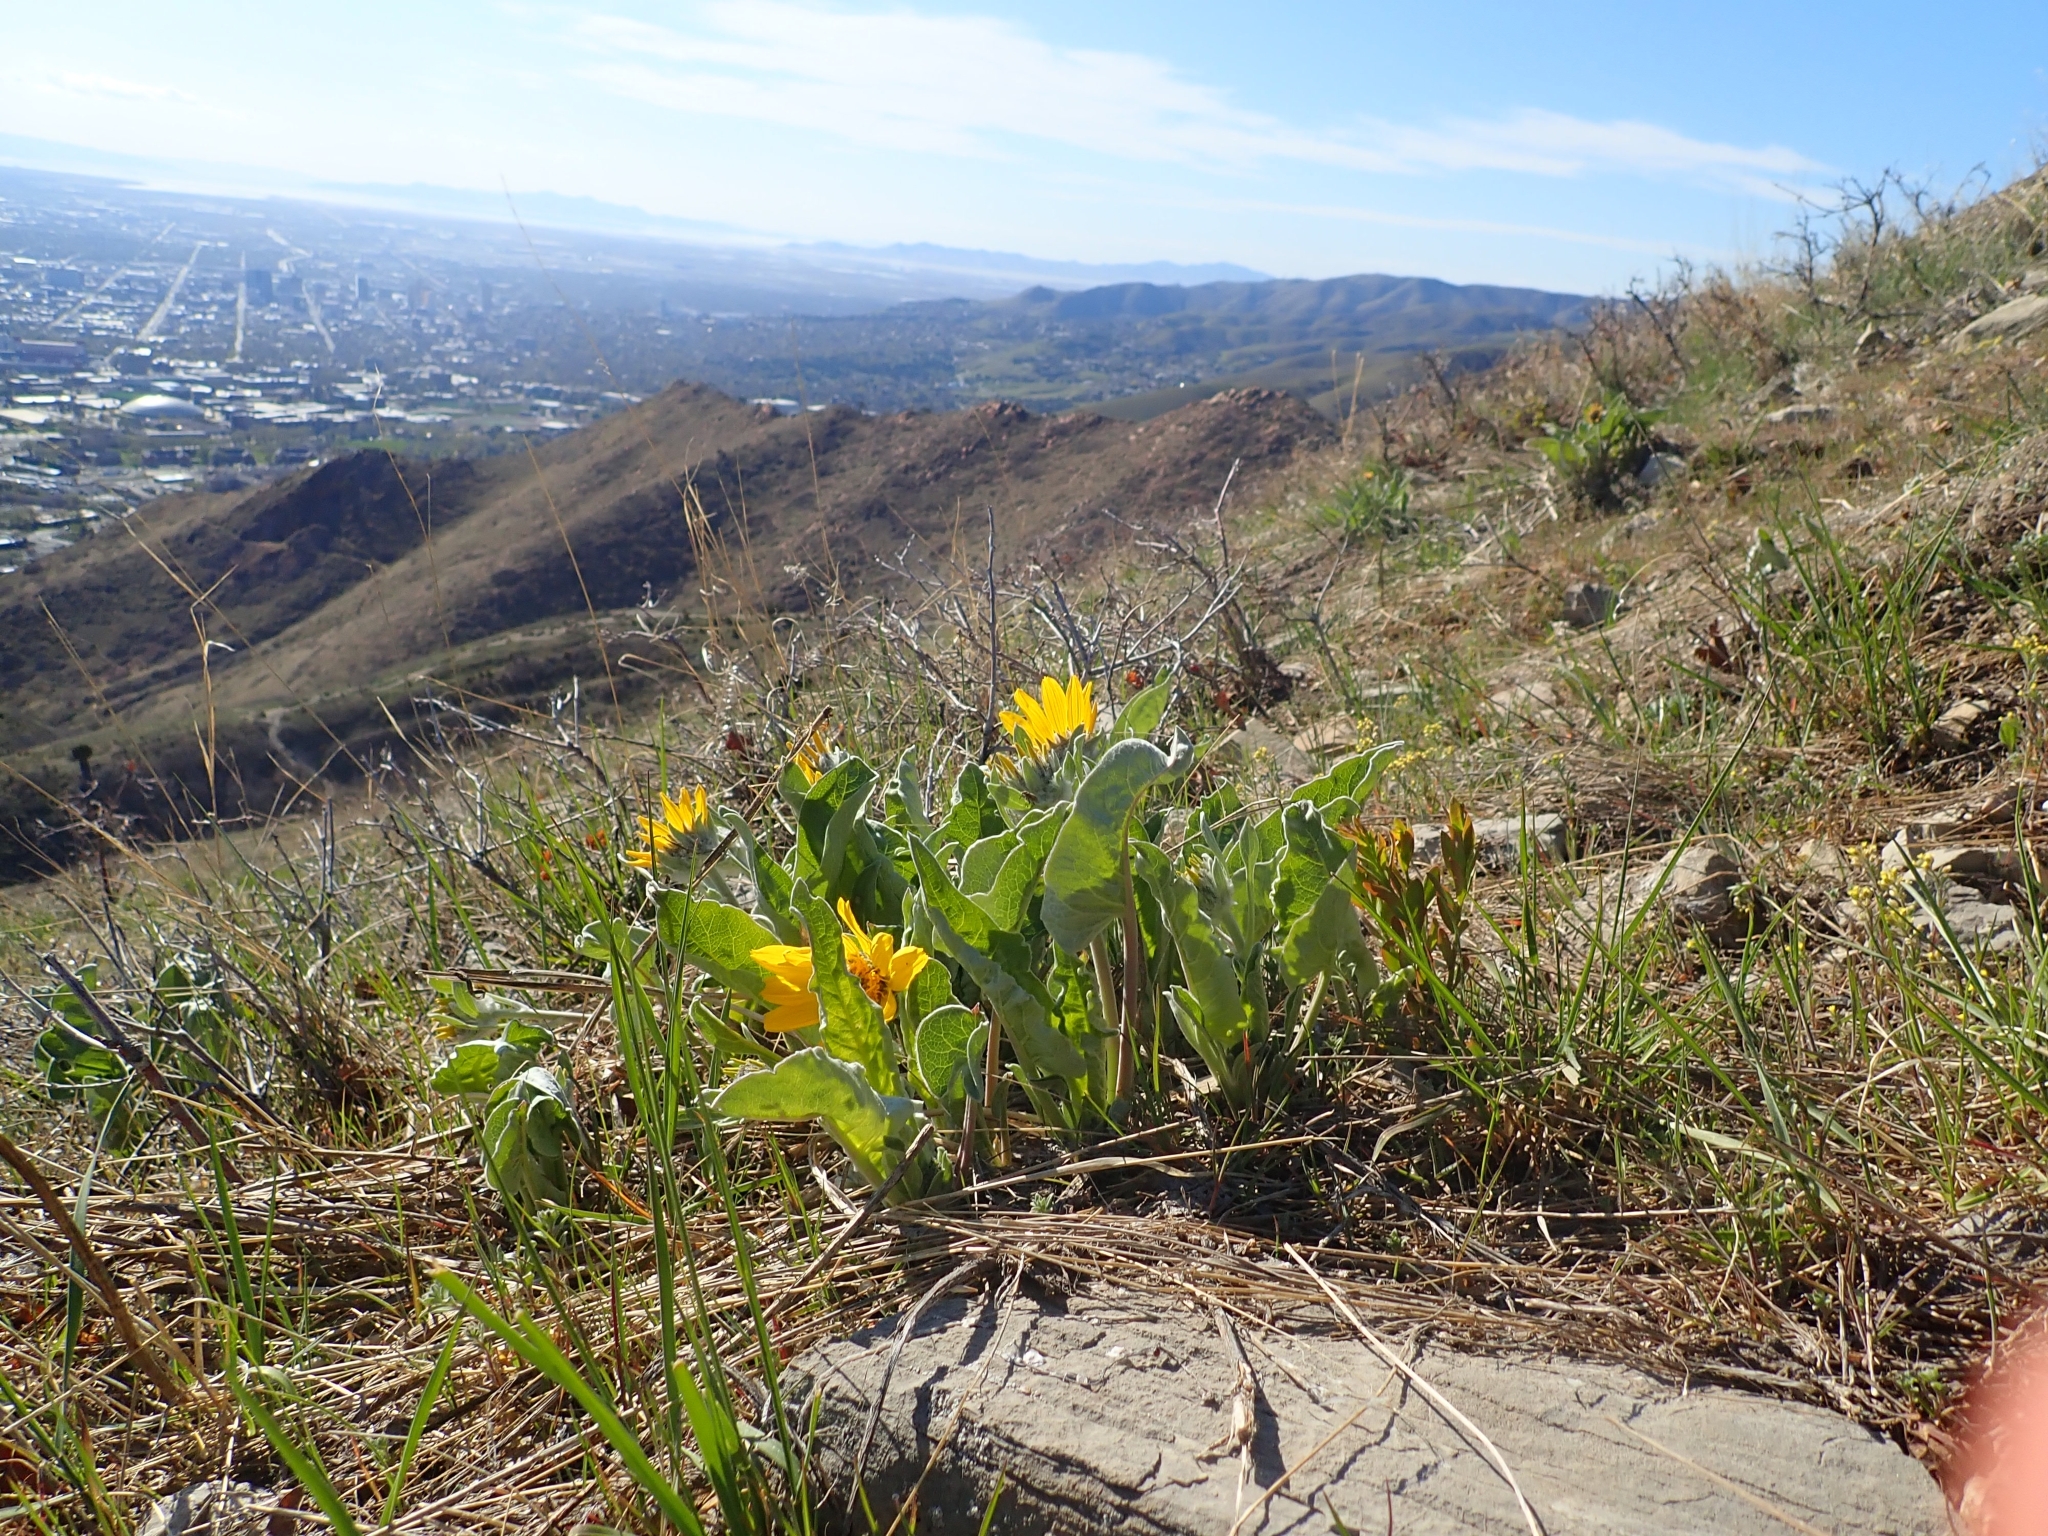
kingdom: Plantae
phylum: Tracheophyta
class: Magnoliopsida
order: Asterales
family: Asteraceae
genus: Wyethia
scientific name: Wyethia sagittata
